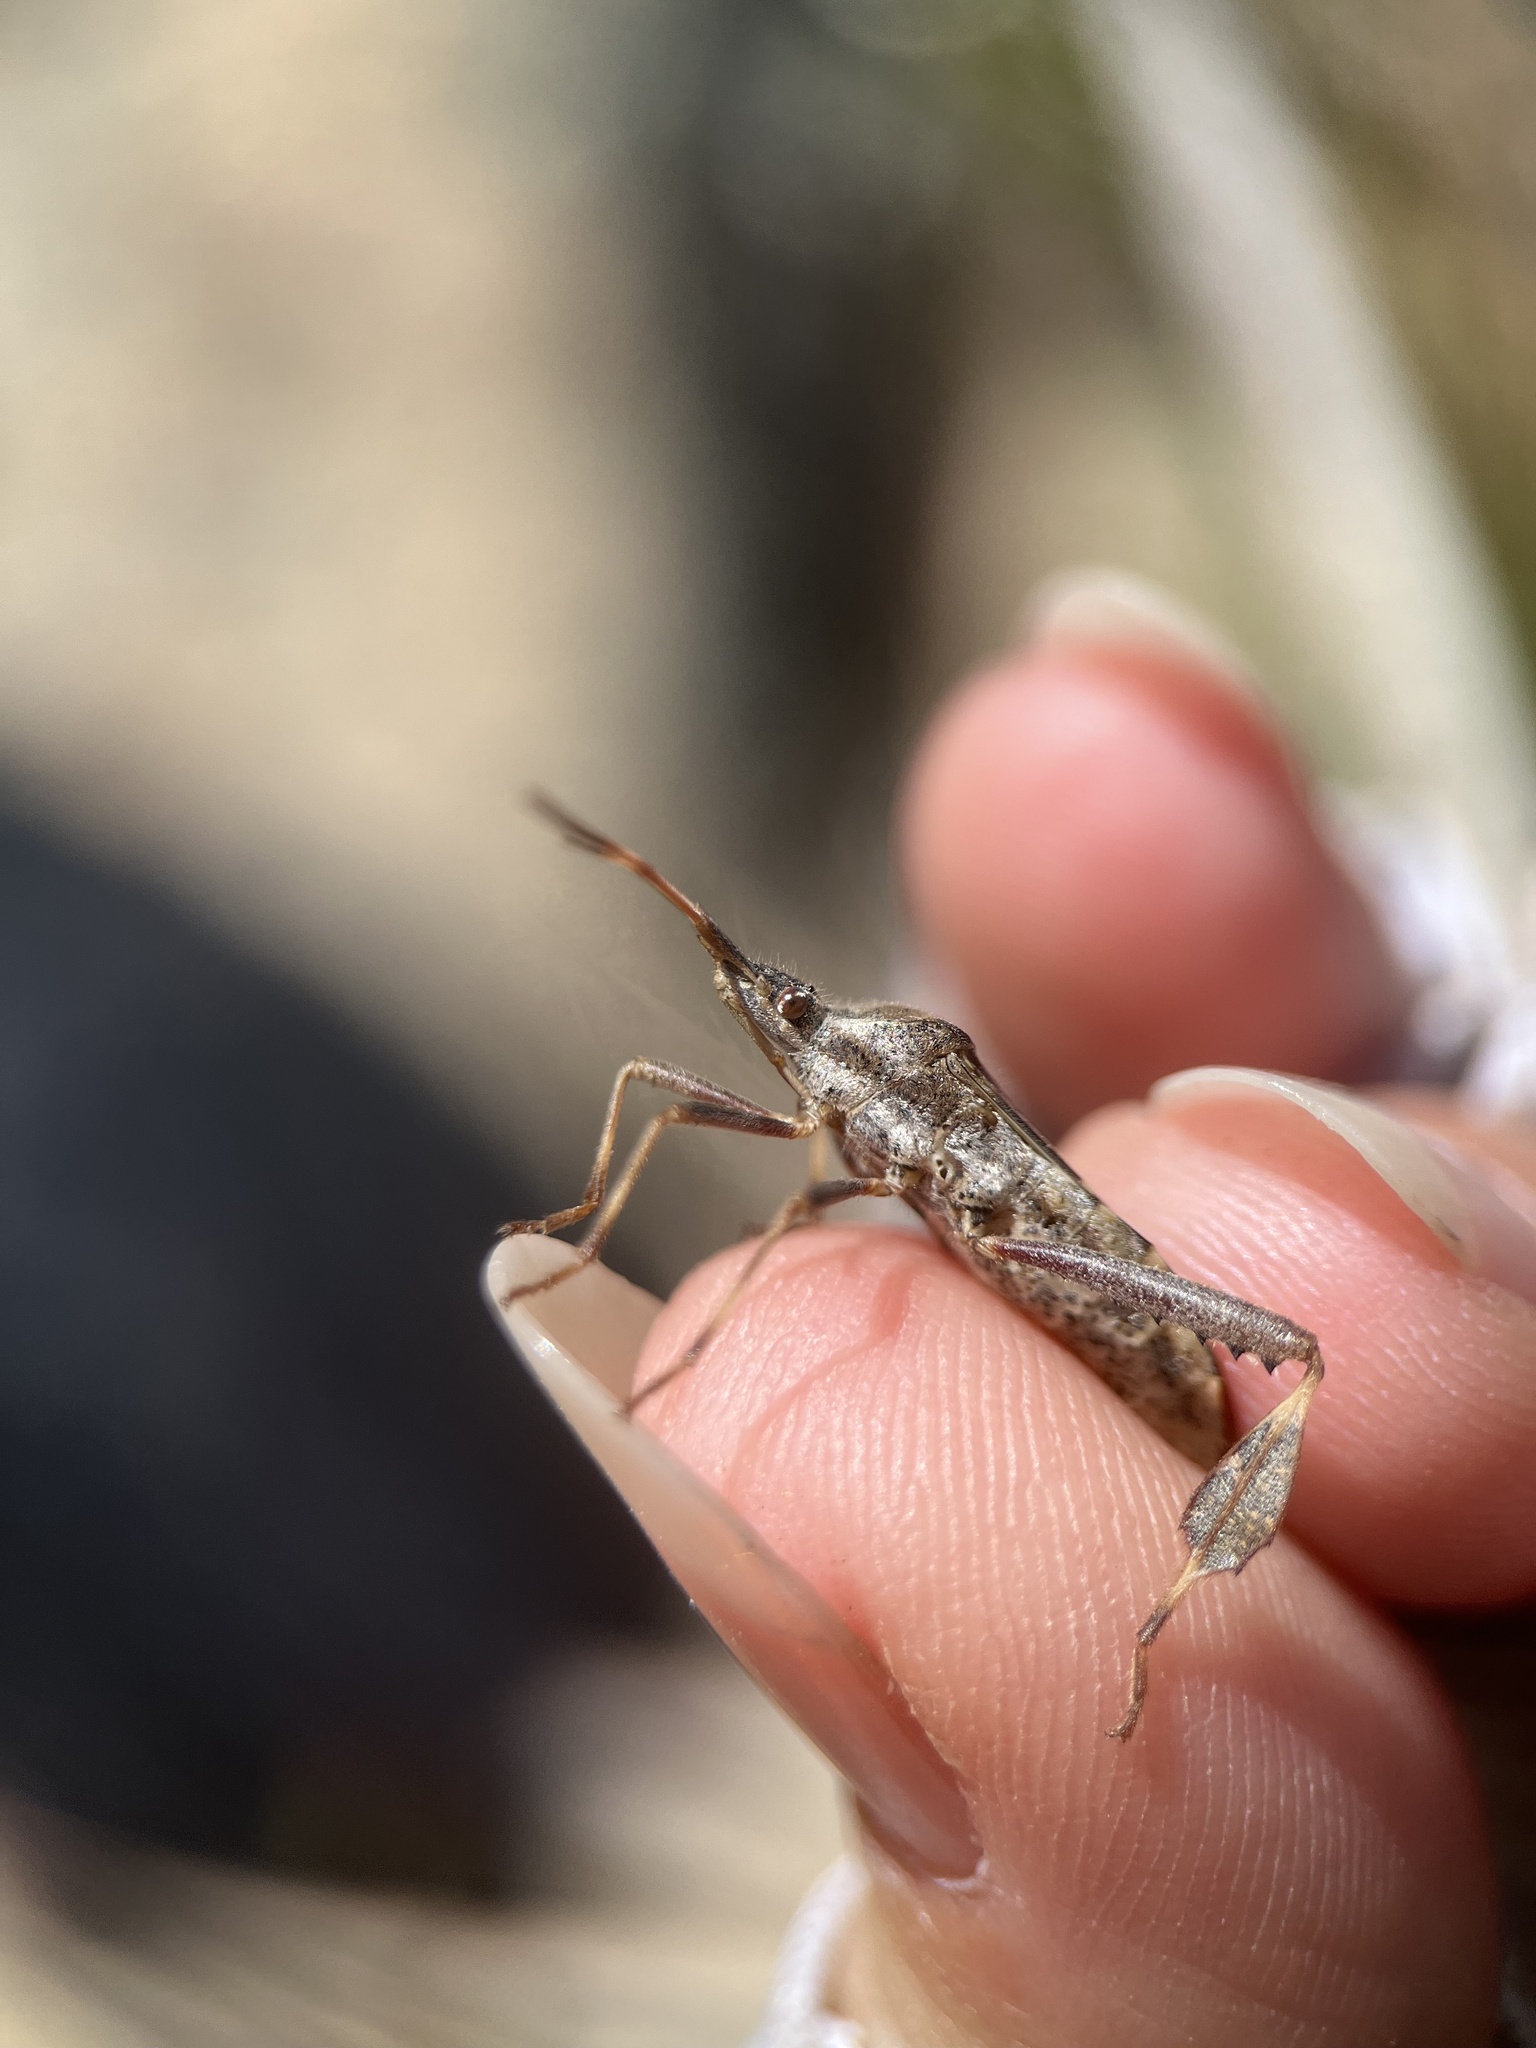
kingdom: Animalia
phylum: Arthropoda
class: Insecta
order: Hemiptera
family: Coreidae
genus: Leptoglossus
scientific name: Leptoglossus clypealis
